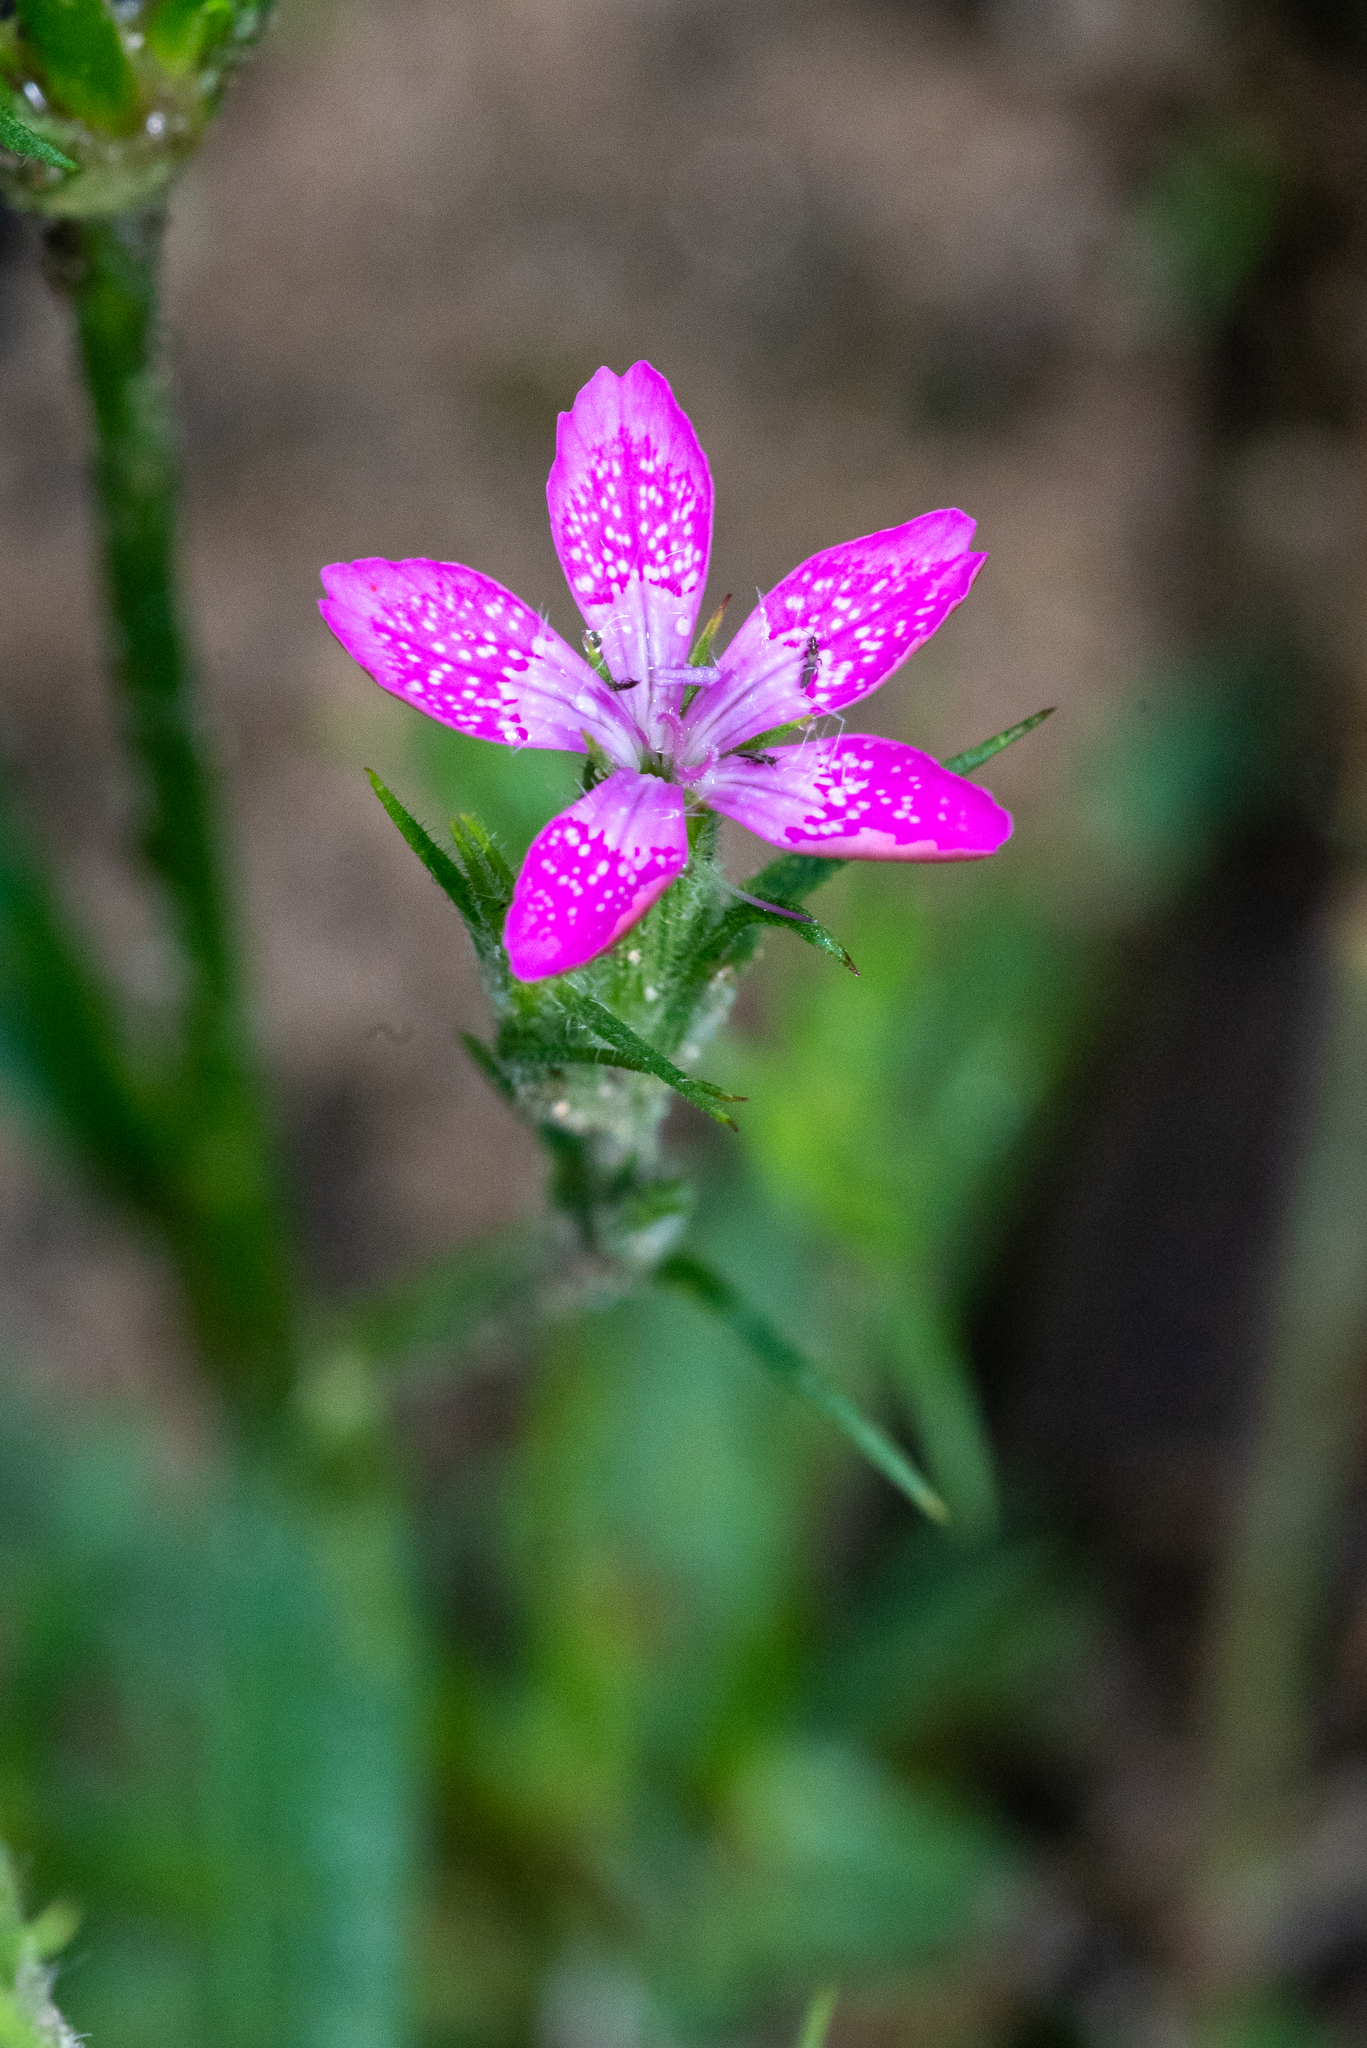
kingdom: Plantae
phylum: Tracheophyta
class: Magnoliopsida
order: Caryophyllales
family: Caryophyllaceae
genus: Dianthus
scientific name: Dianthus armeria
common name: Deptford pink
